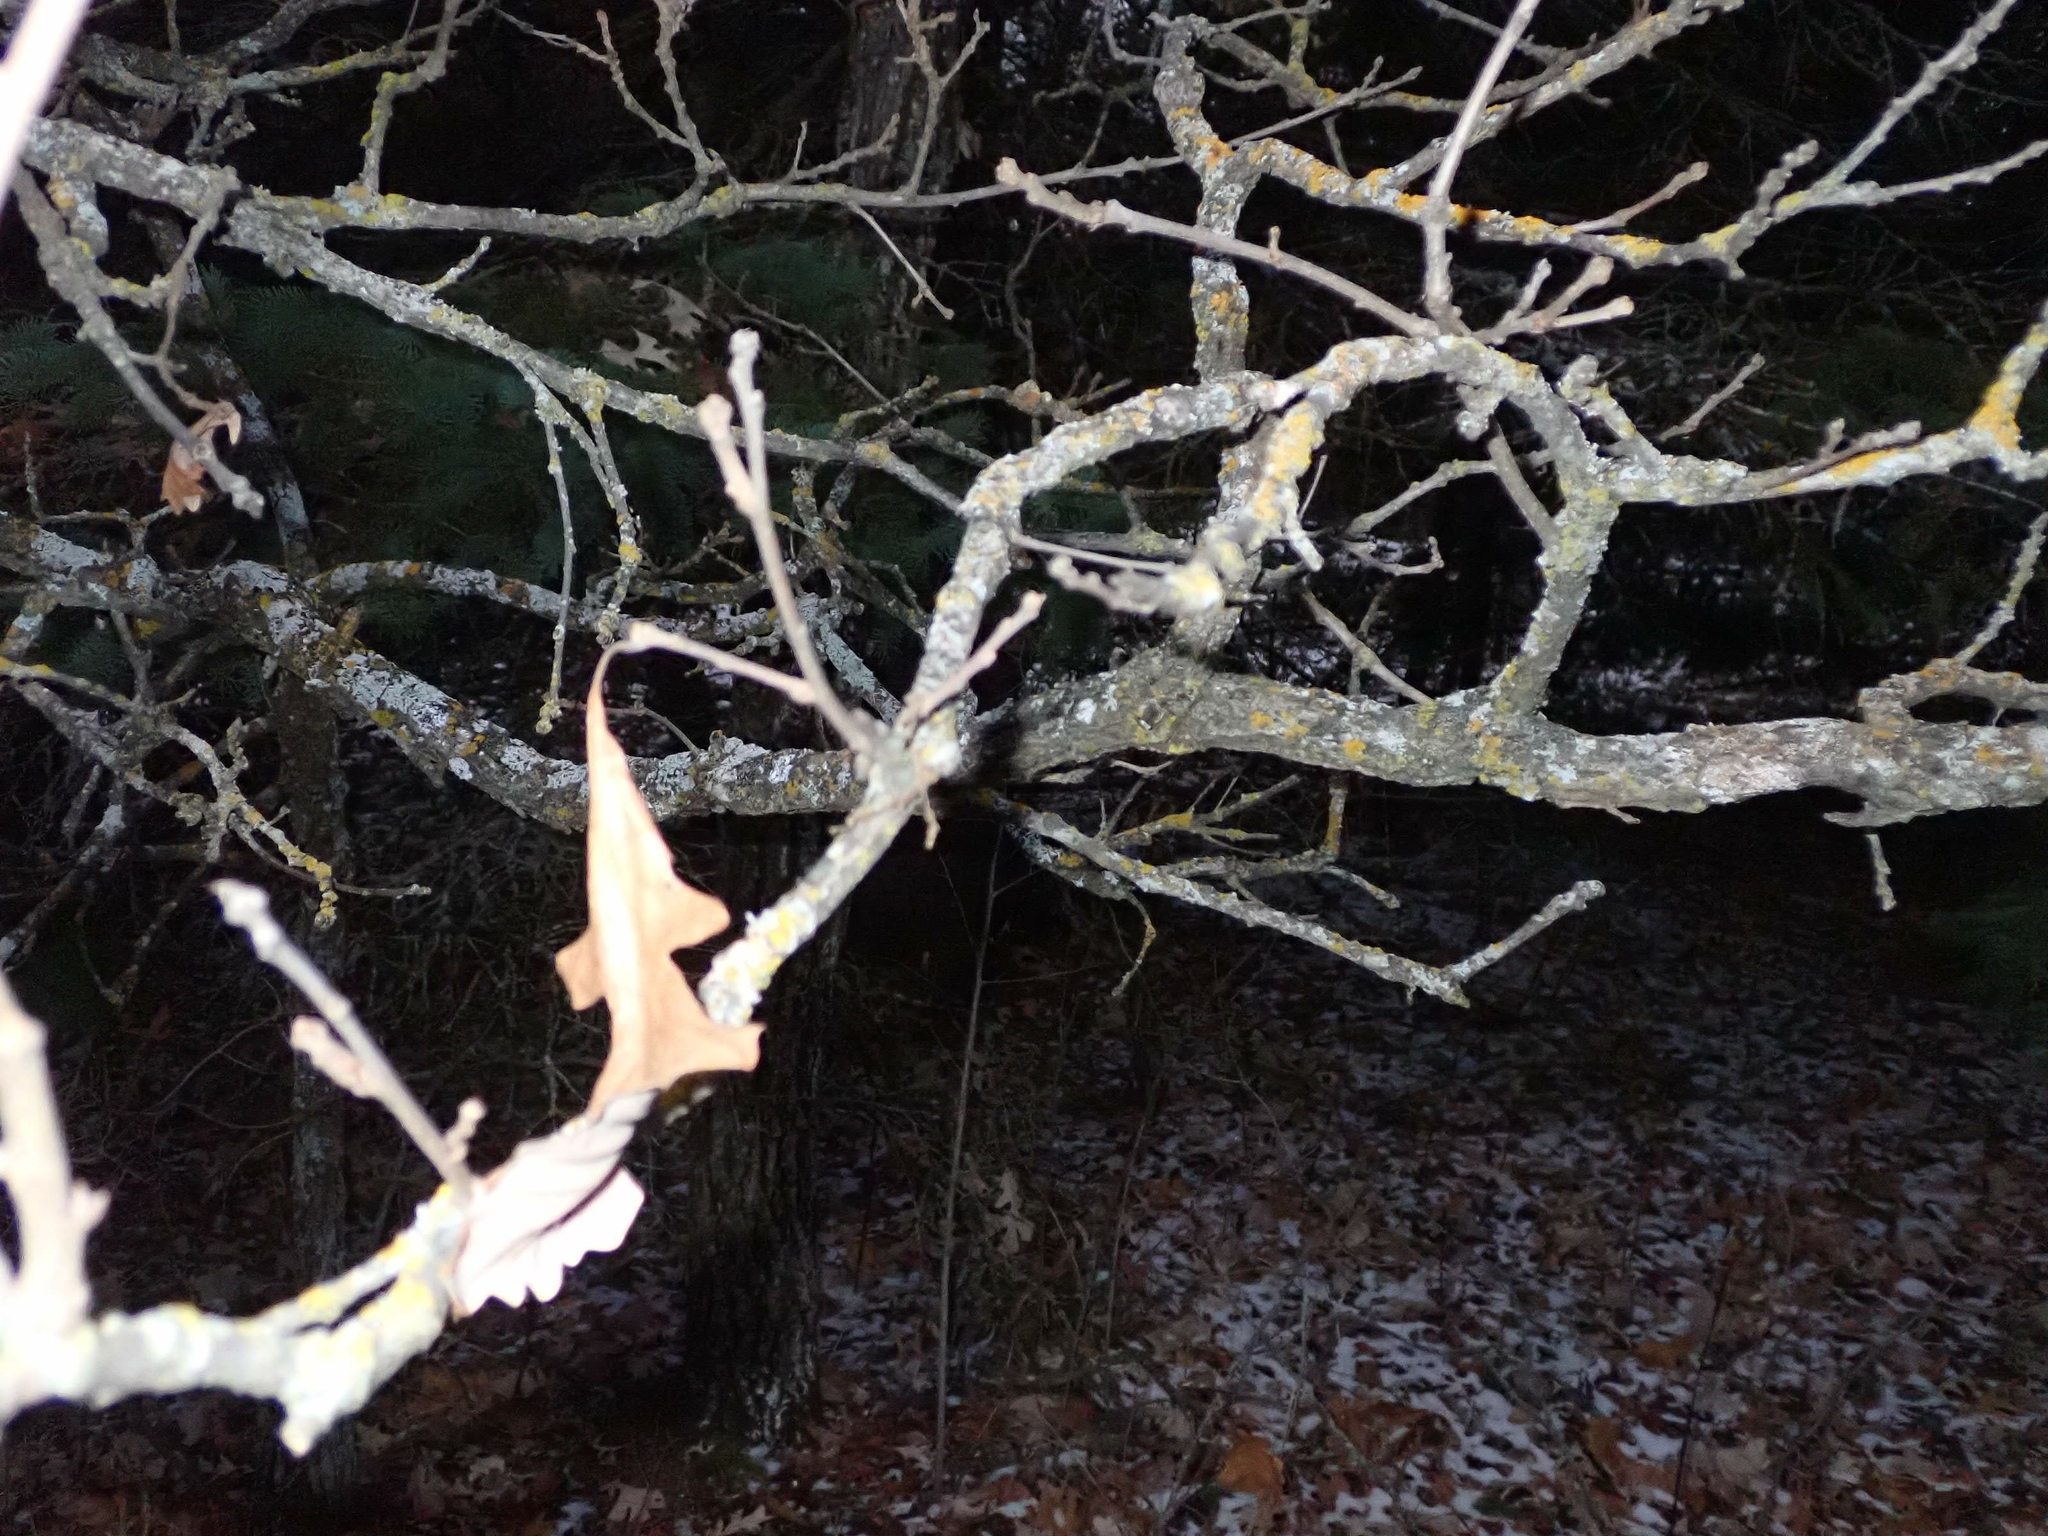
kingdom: Plantae
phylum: Tracheophyta
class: Magnoliopsida
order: Fagales
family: Fagaceae
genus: Quercus
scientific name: Quercus macrocarpa
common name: Bur oak
